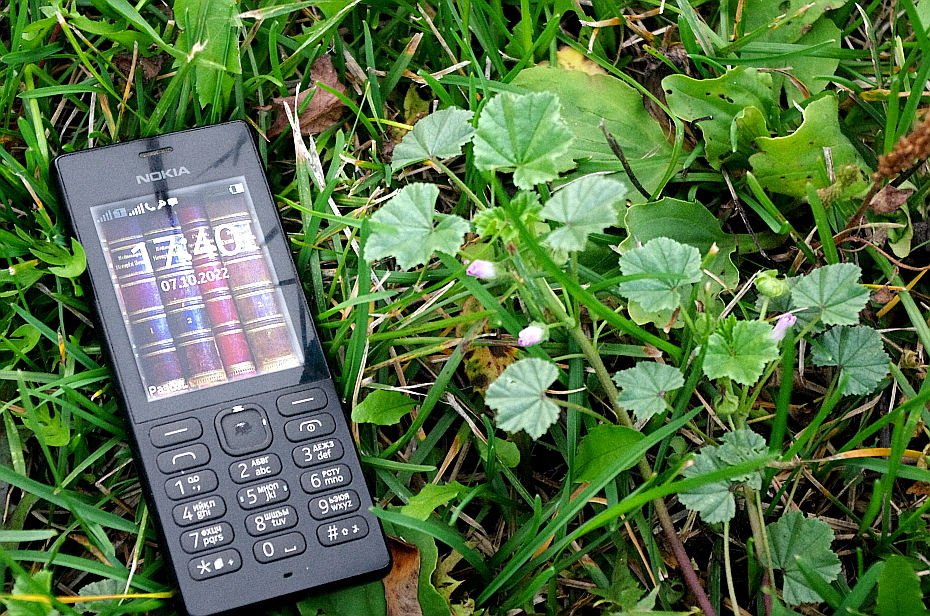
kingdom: Plantae
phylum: Tracheophyta
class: Magnoliopsida
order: Malvales
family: Malvaceae
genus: Malva
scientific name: Malva neglecta
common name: Common mallow
